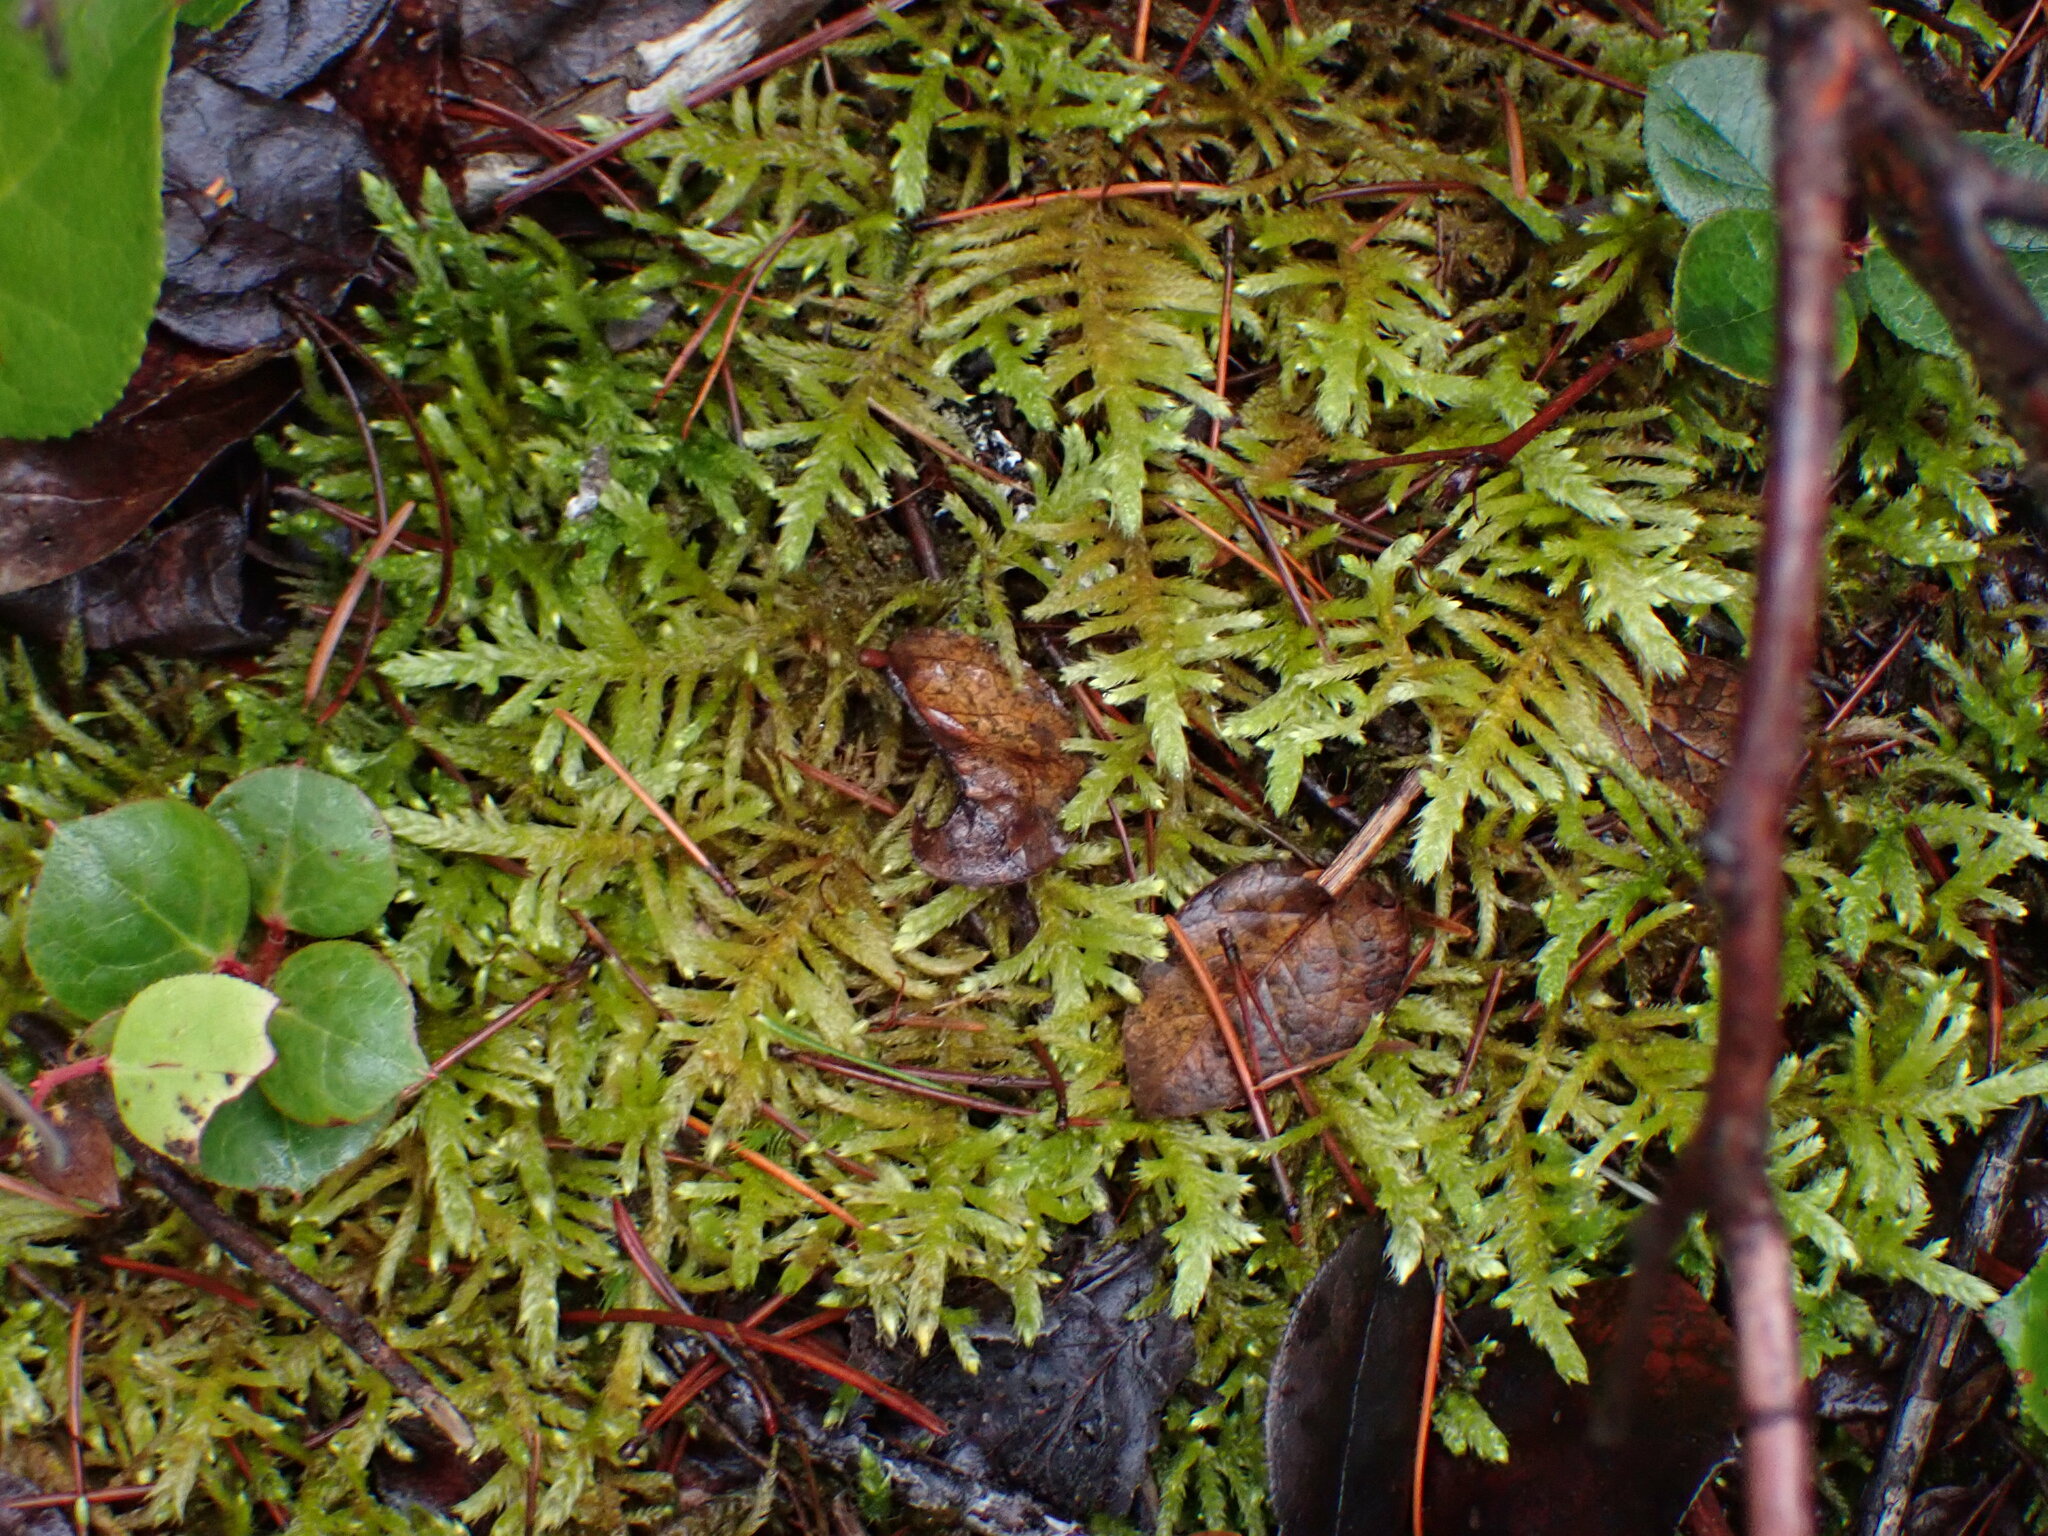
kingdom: Plantae
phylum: Bryophyta
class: Bryopsida
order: Hypnales
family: Brachytheciaceae
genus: Homalothecium
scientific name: Homalothecium megaptilum
